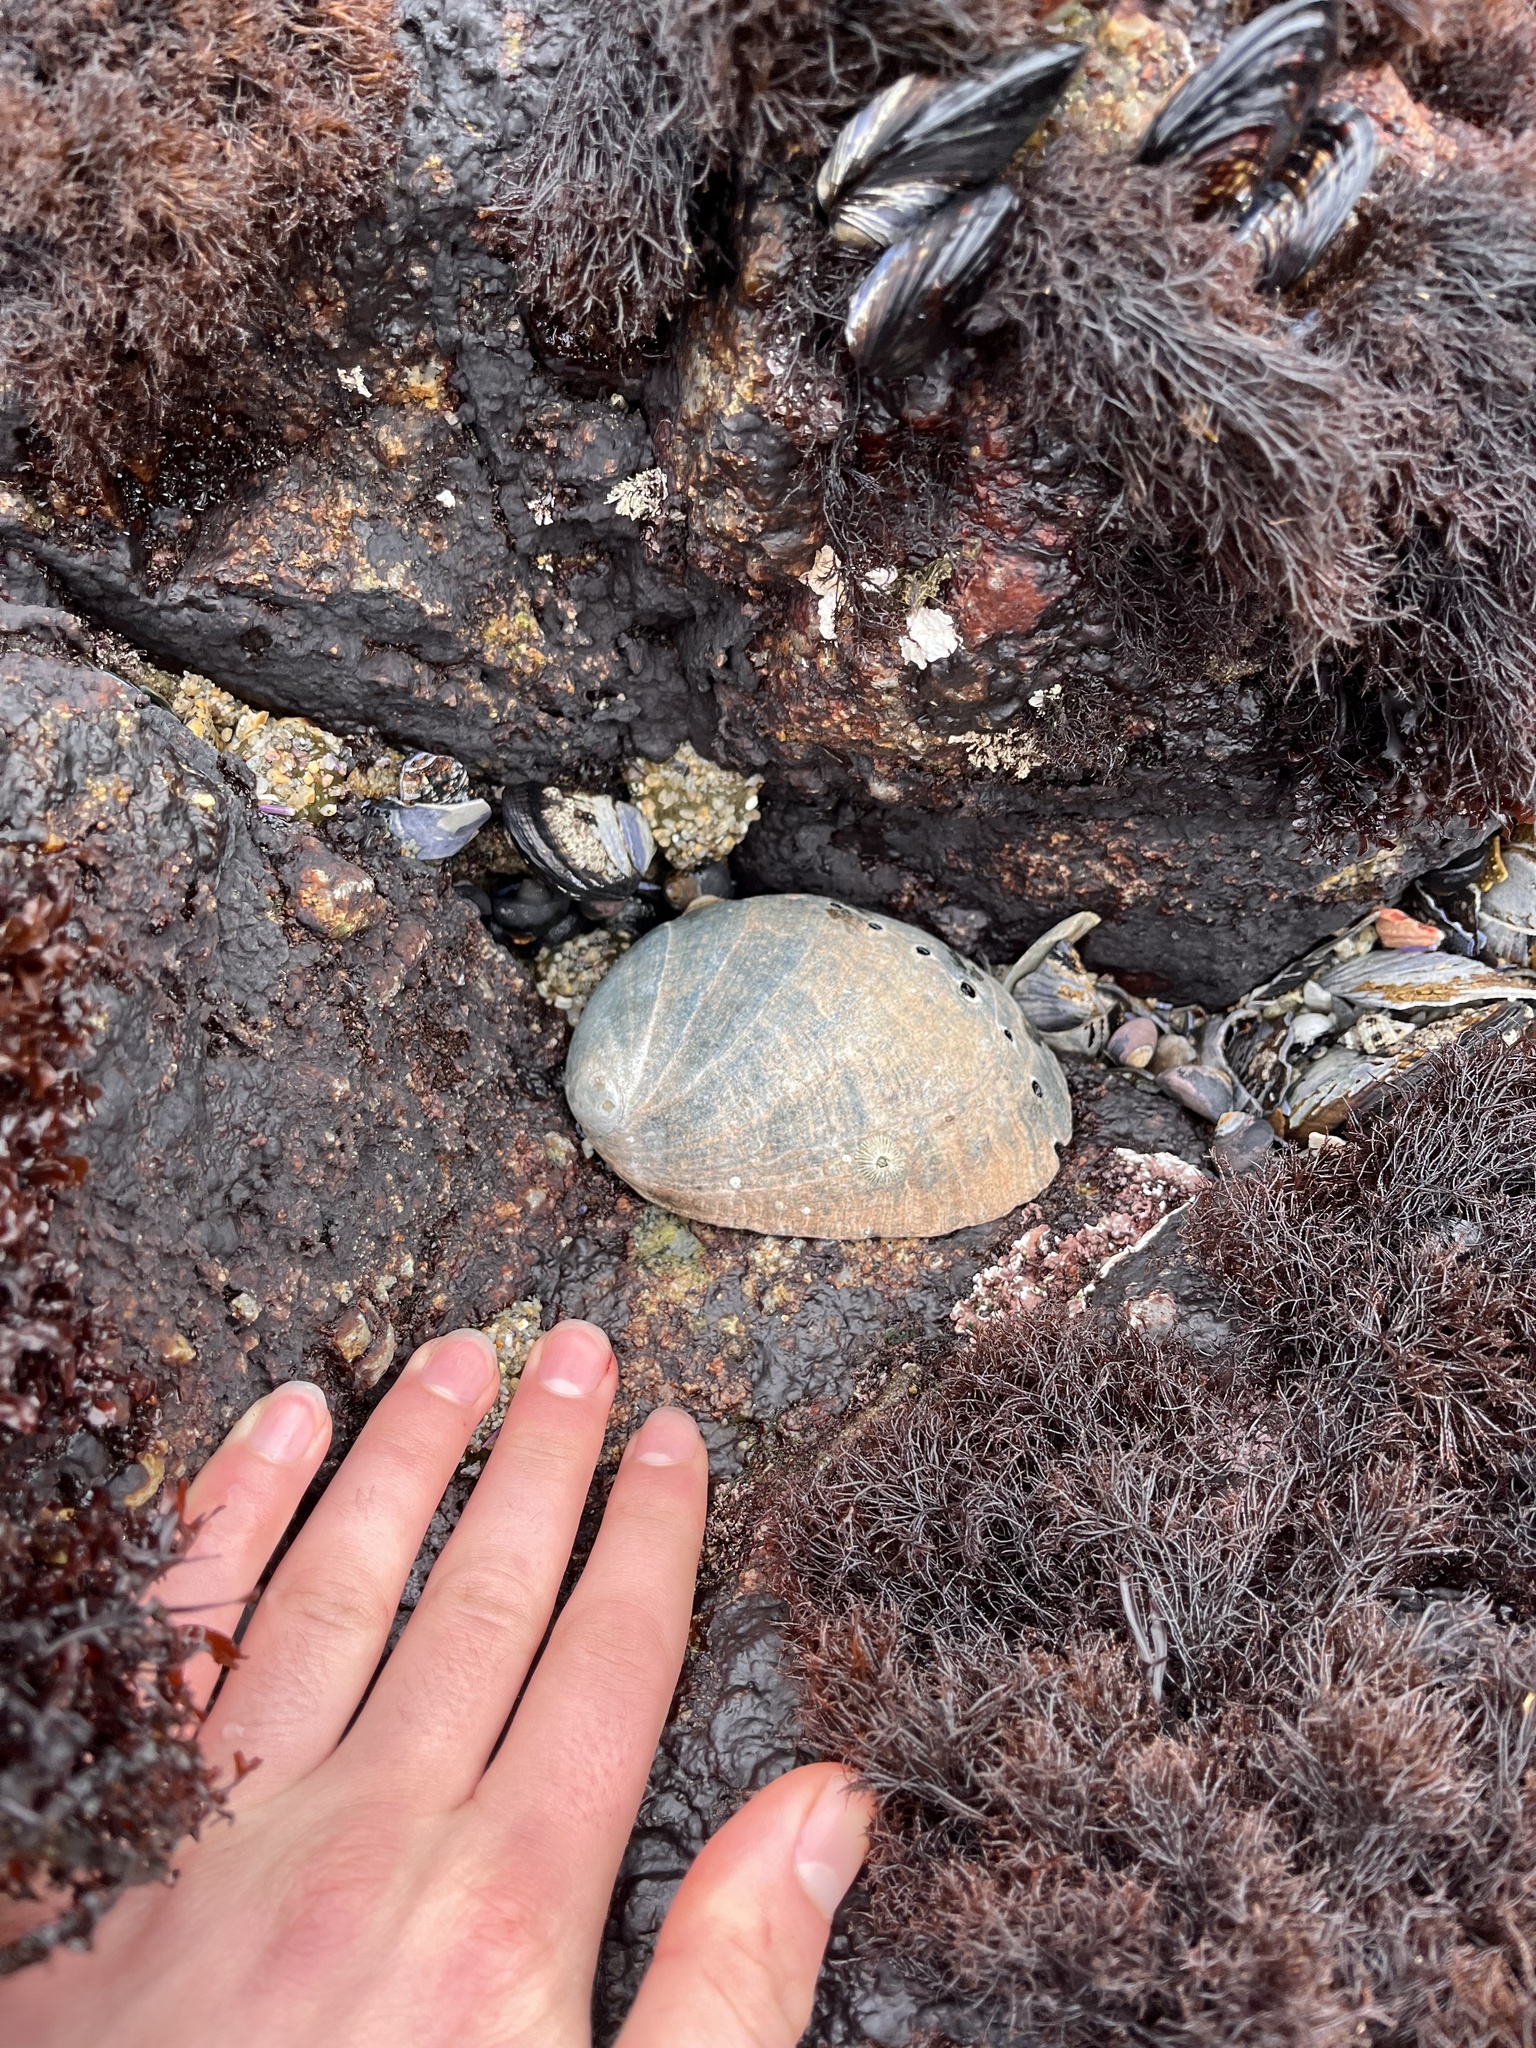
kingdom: Animalia
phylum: Mollusca
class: Gastropoda
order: Lepetellida
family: Haliotidae
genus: Haliotis
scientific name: Haliotis cracherodii
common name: Black abalone
